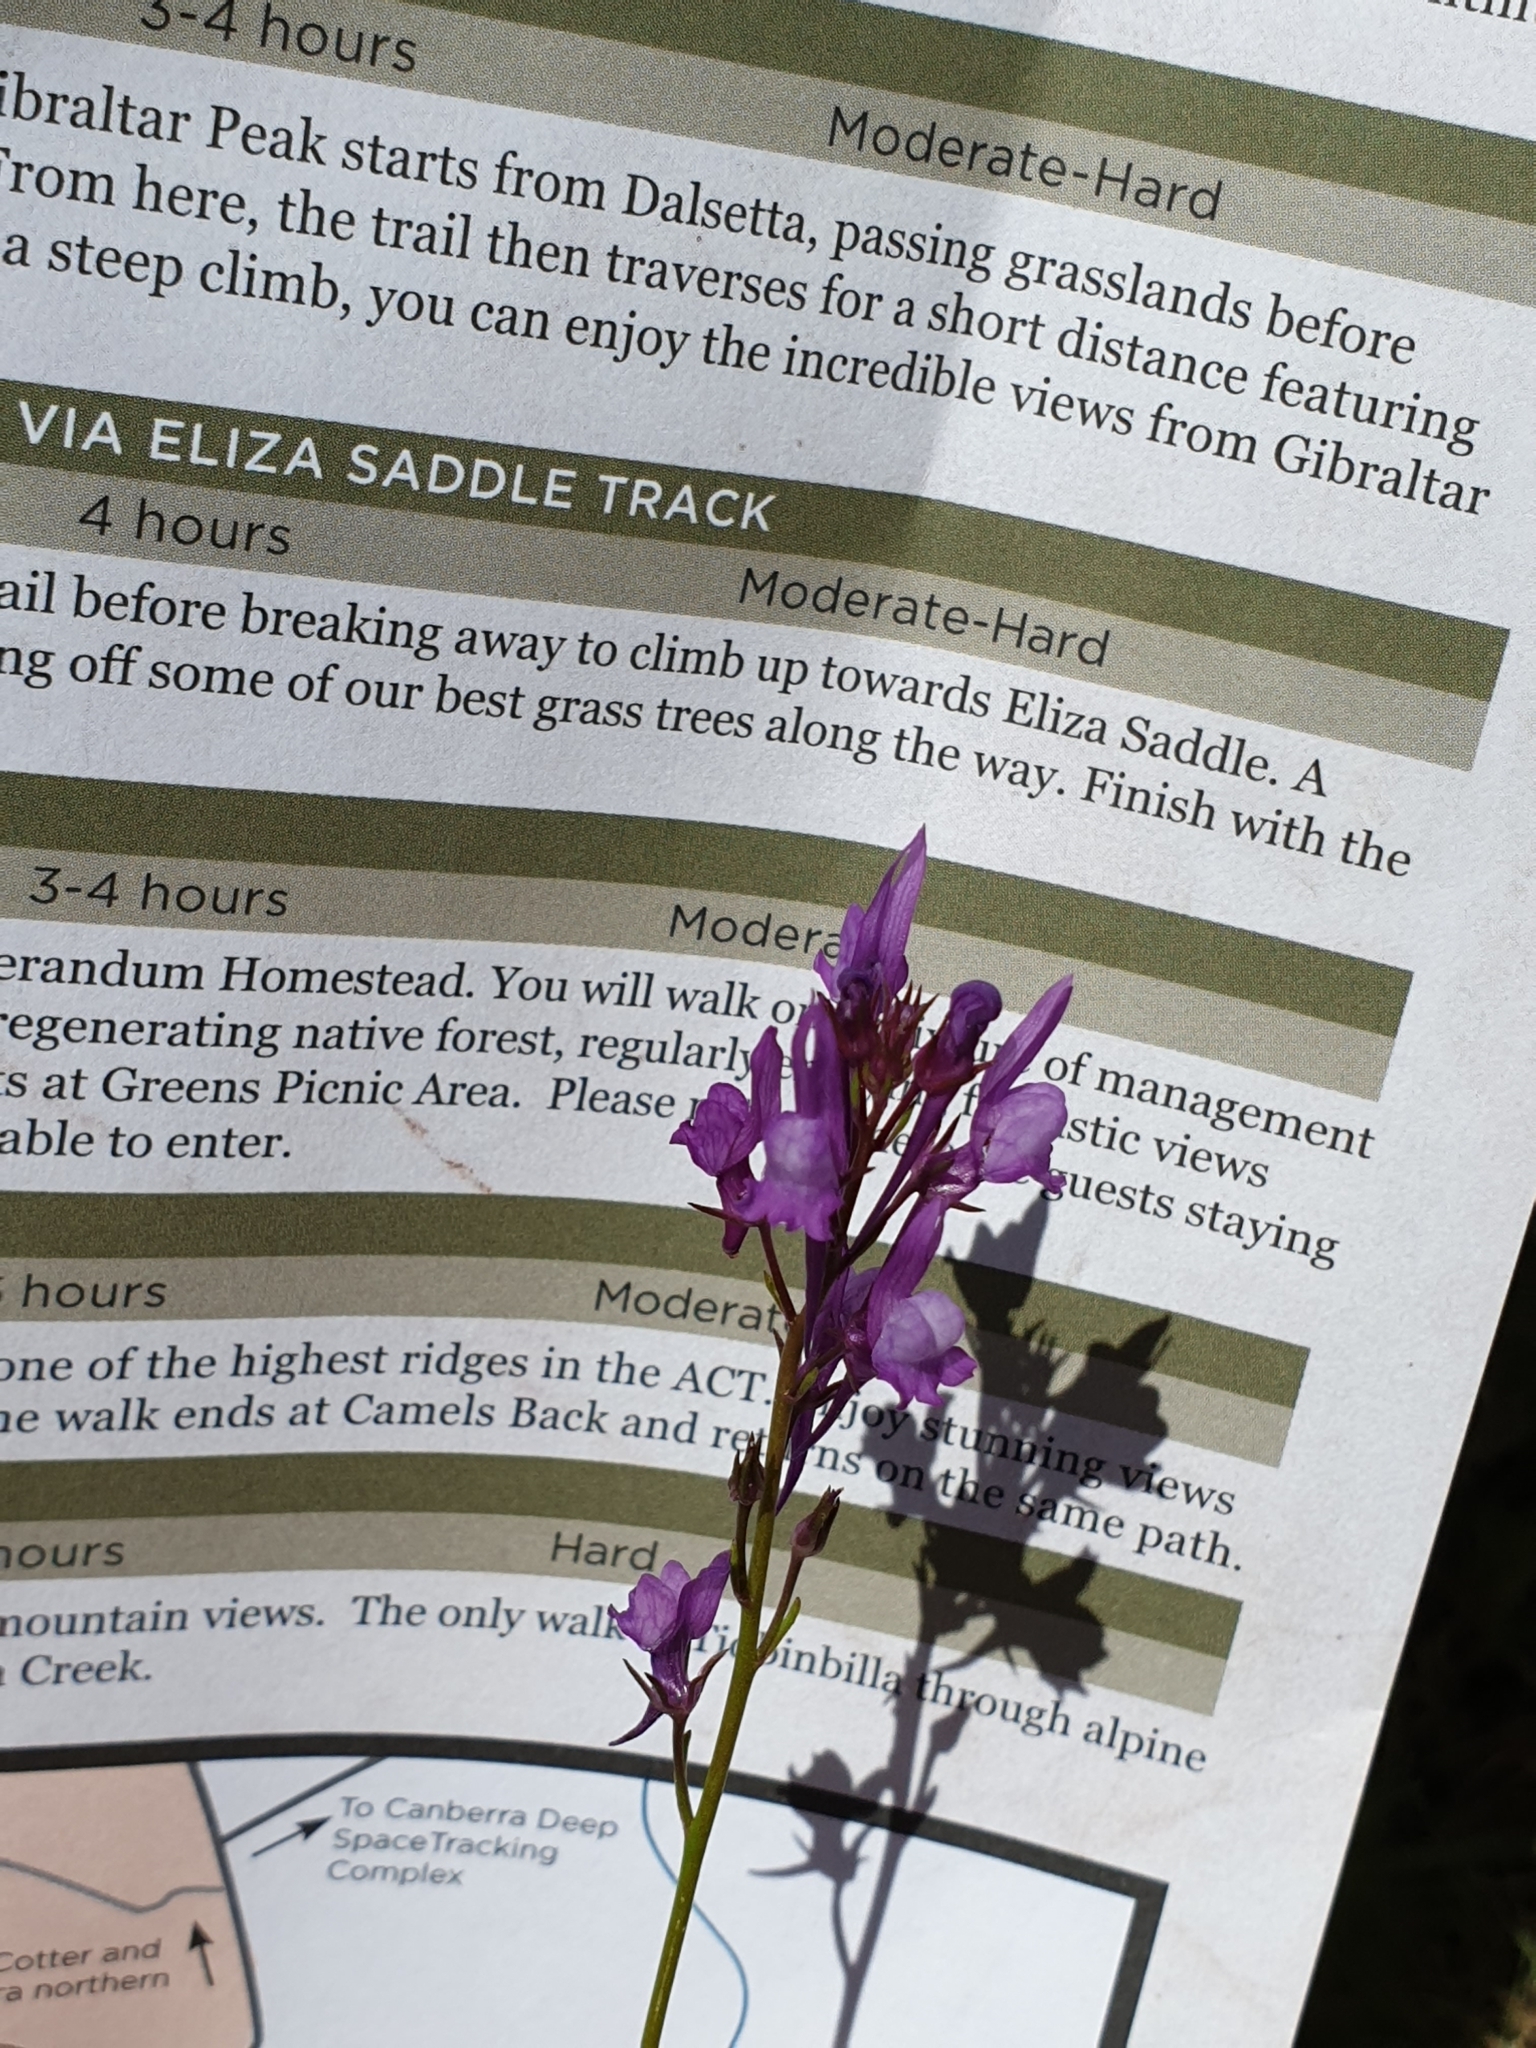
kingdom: Plantae
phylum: Tracheophyta
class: Magnoliopsida
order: Lamiales
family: Plantaginaceae
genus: Linaria
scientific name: Linaria pelisseriana
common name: Jersey toadflax
